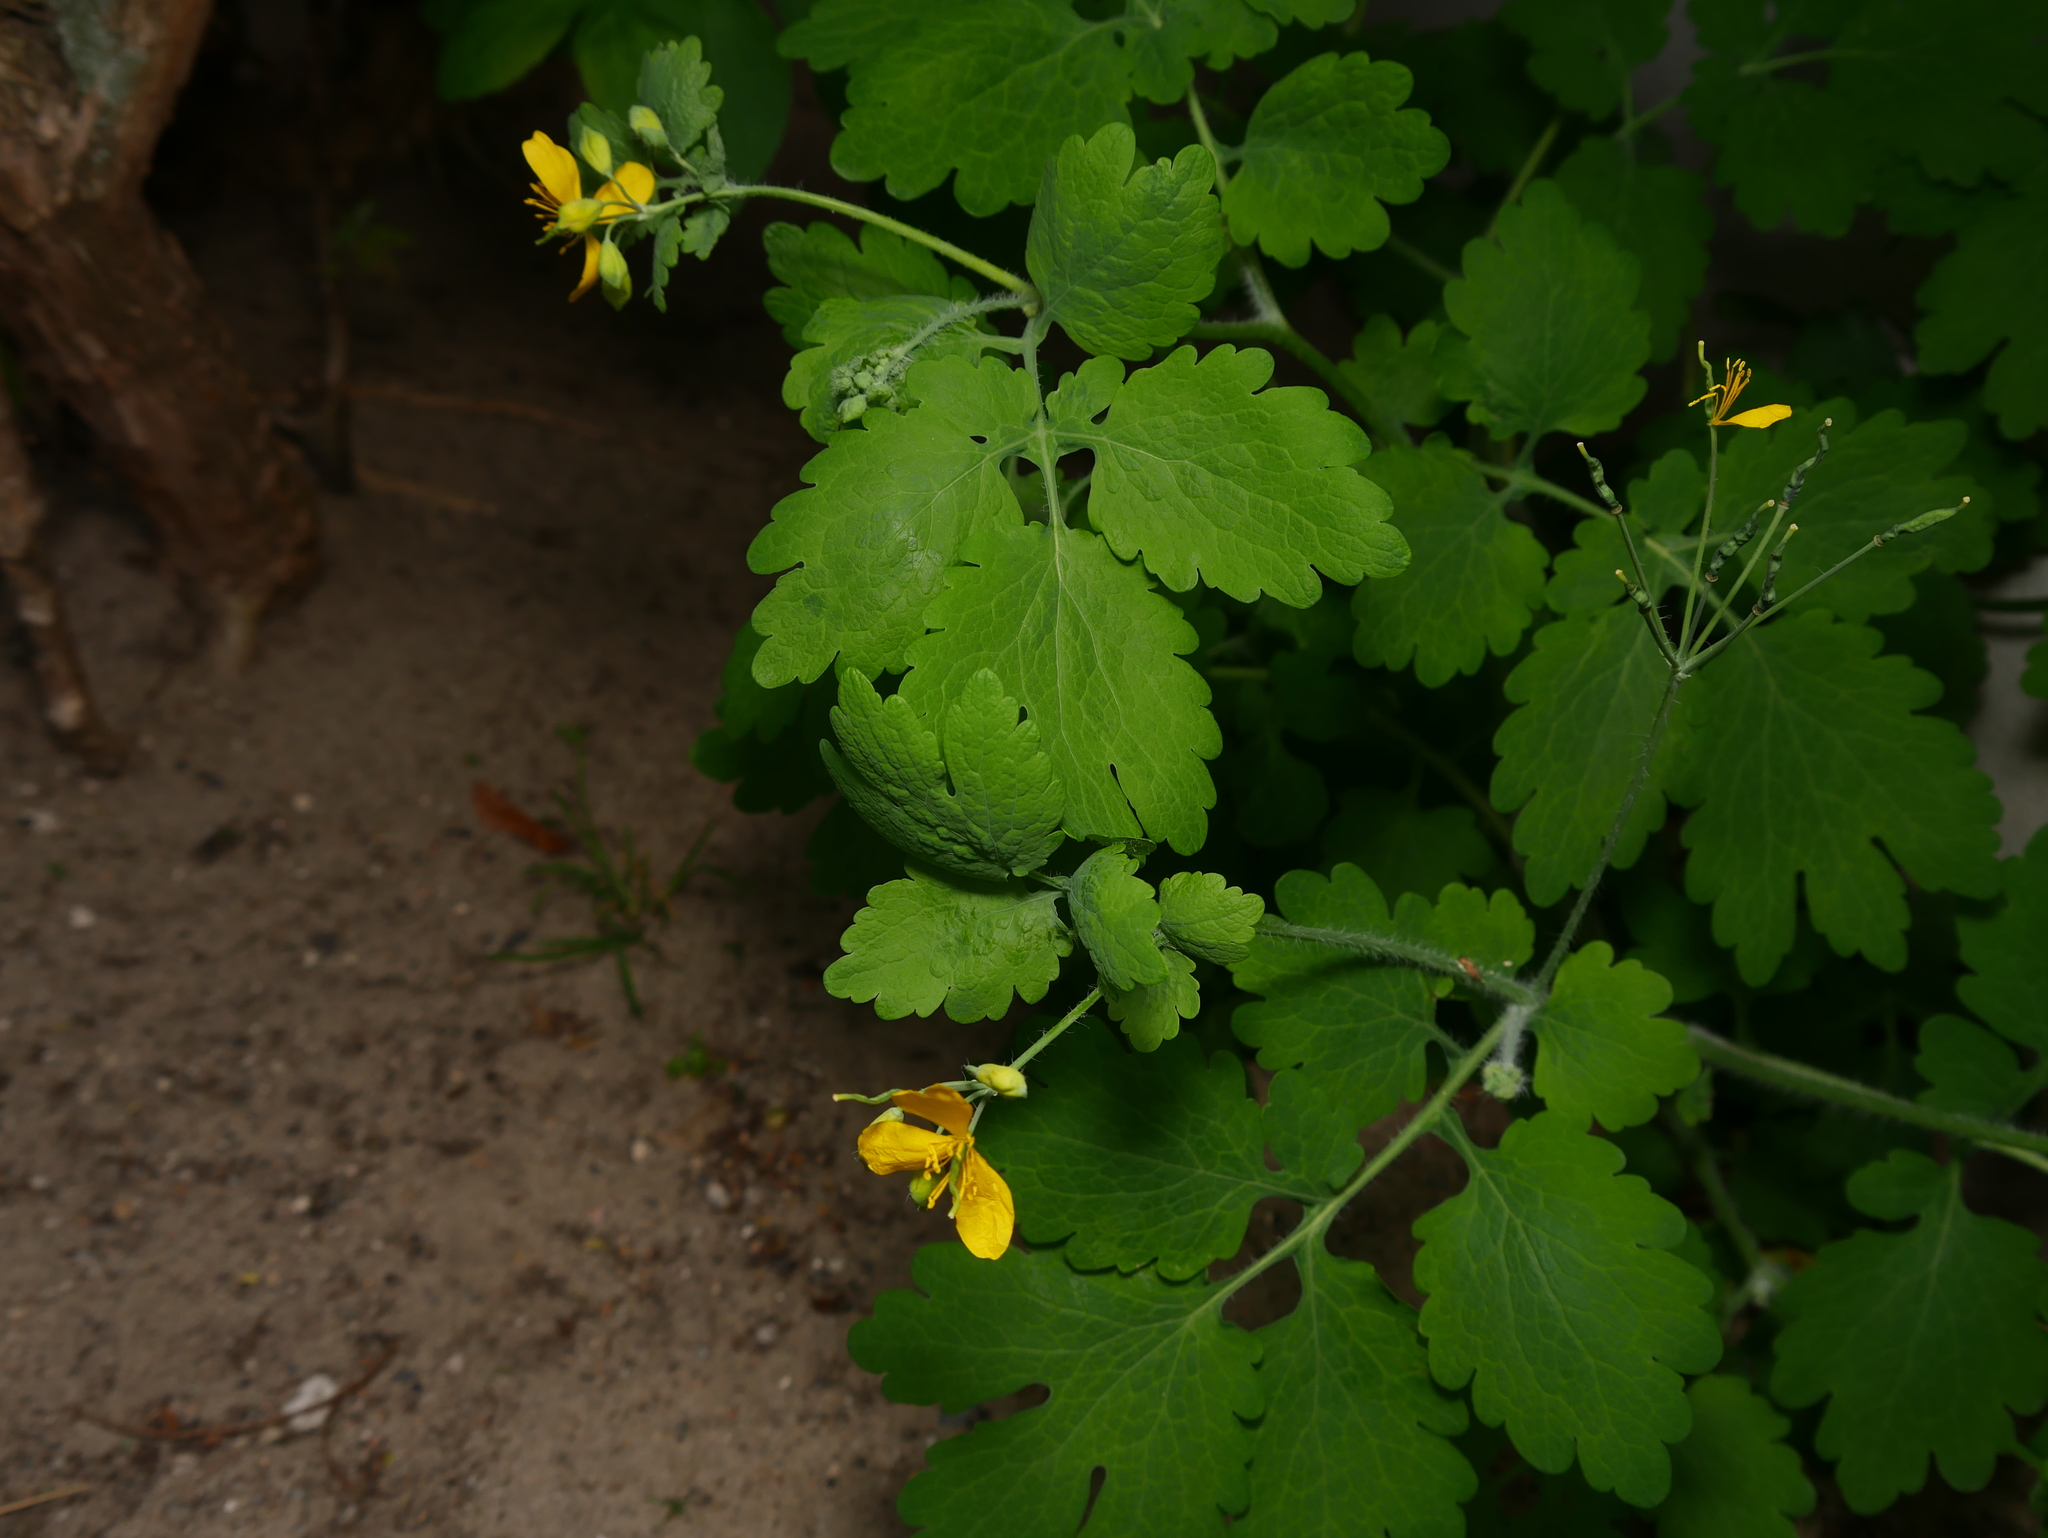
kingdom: Plantae
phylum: Tracheophyta
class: Magnoliopsida
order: Ranunculales
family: Papaveraceae
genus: Chelidonium
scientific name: Chelidonium majus
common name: Greater celandine
